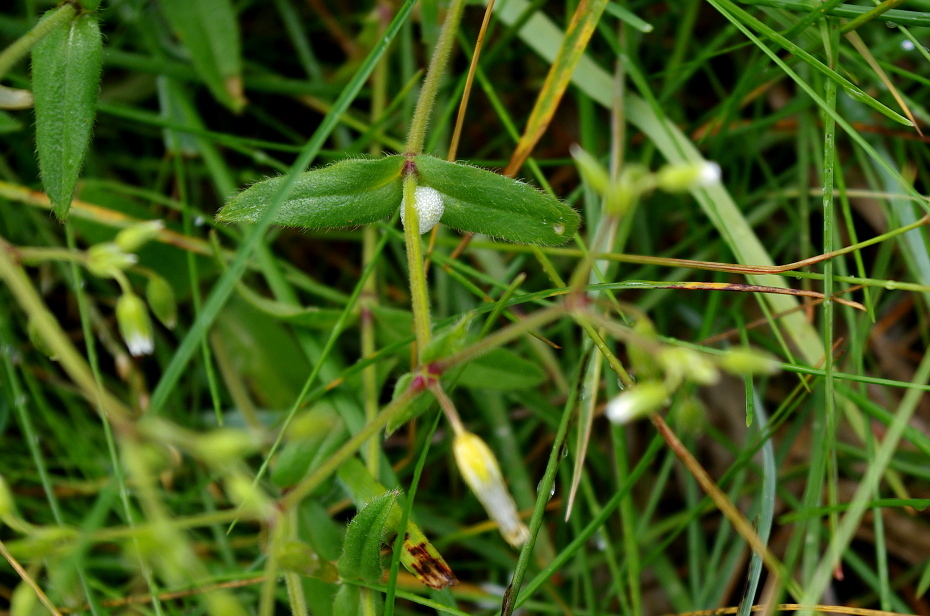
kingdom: Animalia
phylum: Arthropoda
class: Insecta
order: Hemiptera
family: Aphrophoridae
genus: Philaenus
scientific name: Philaenus spumarius
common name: Meadow spittlebug
